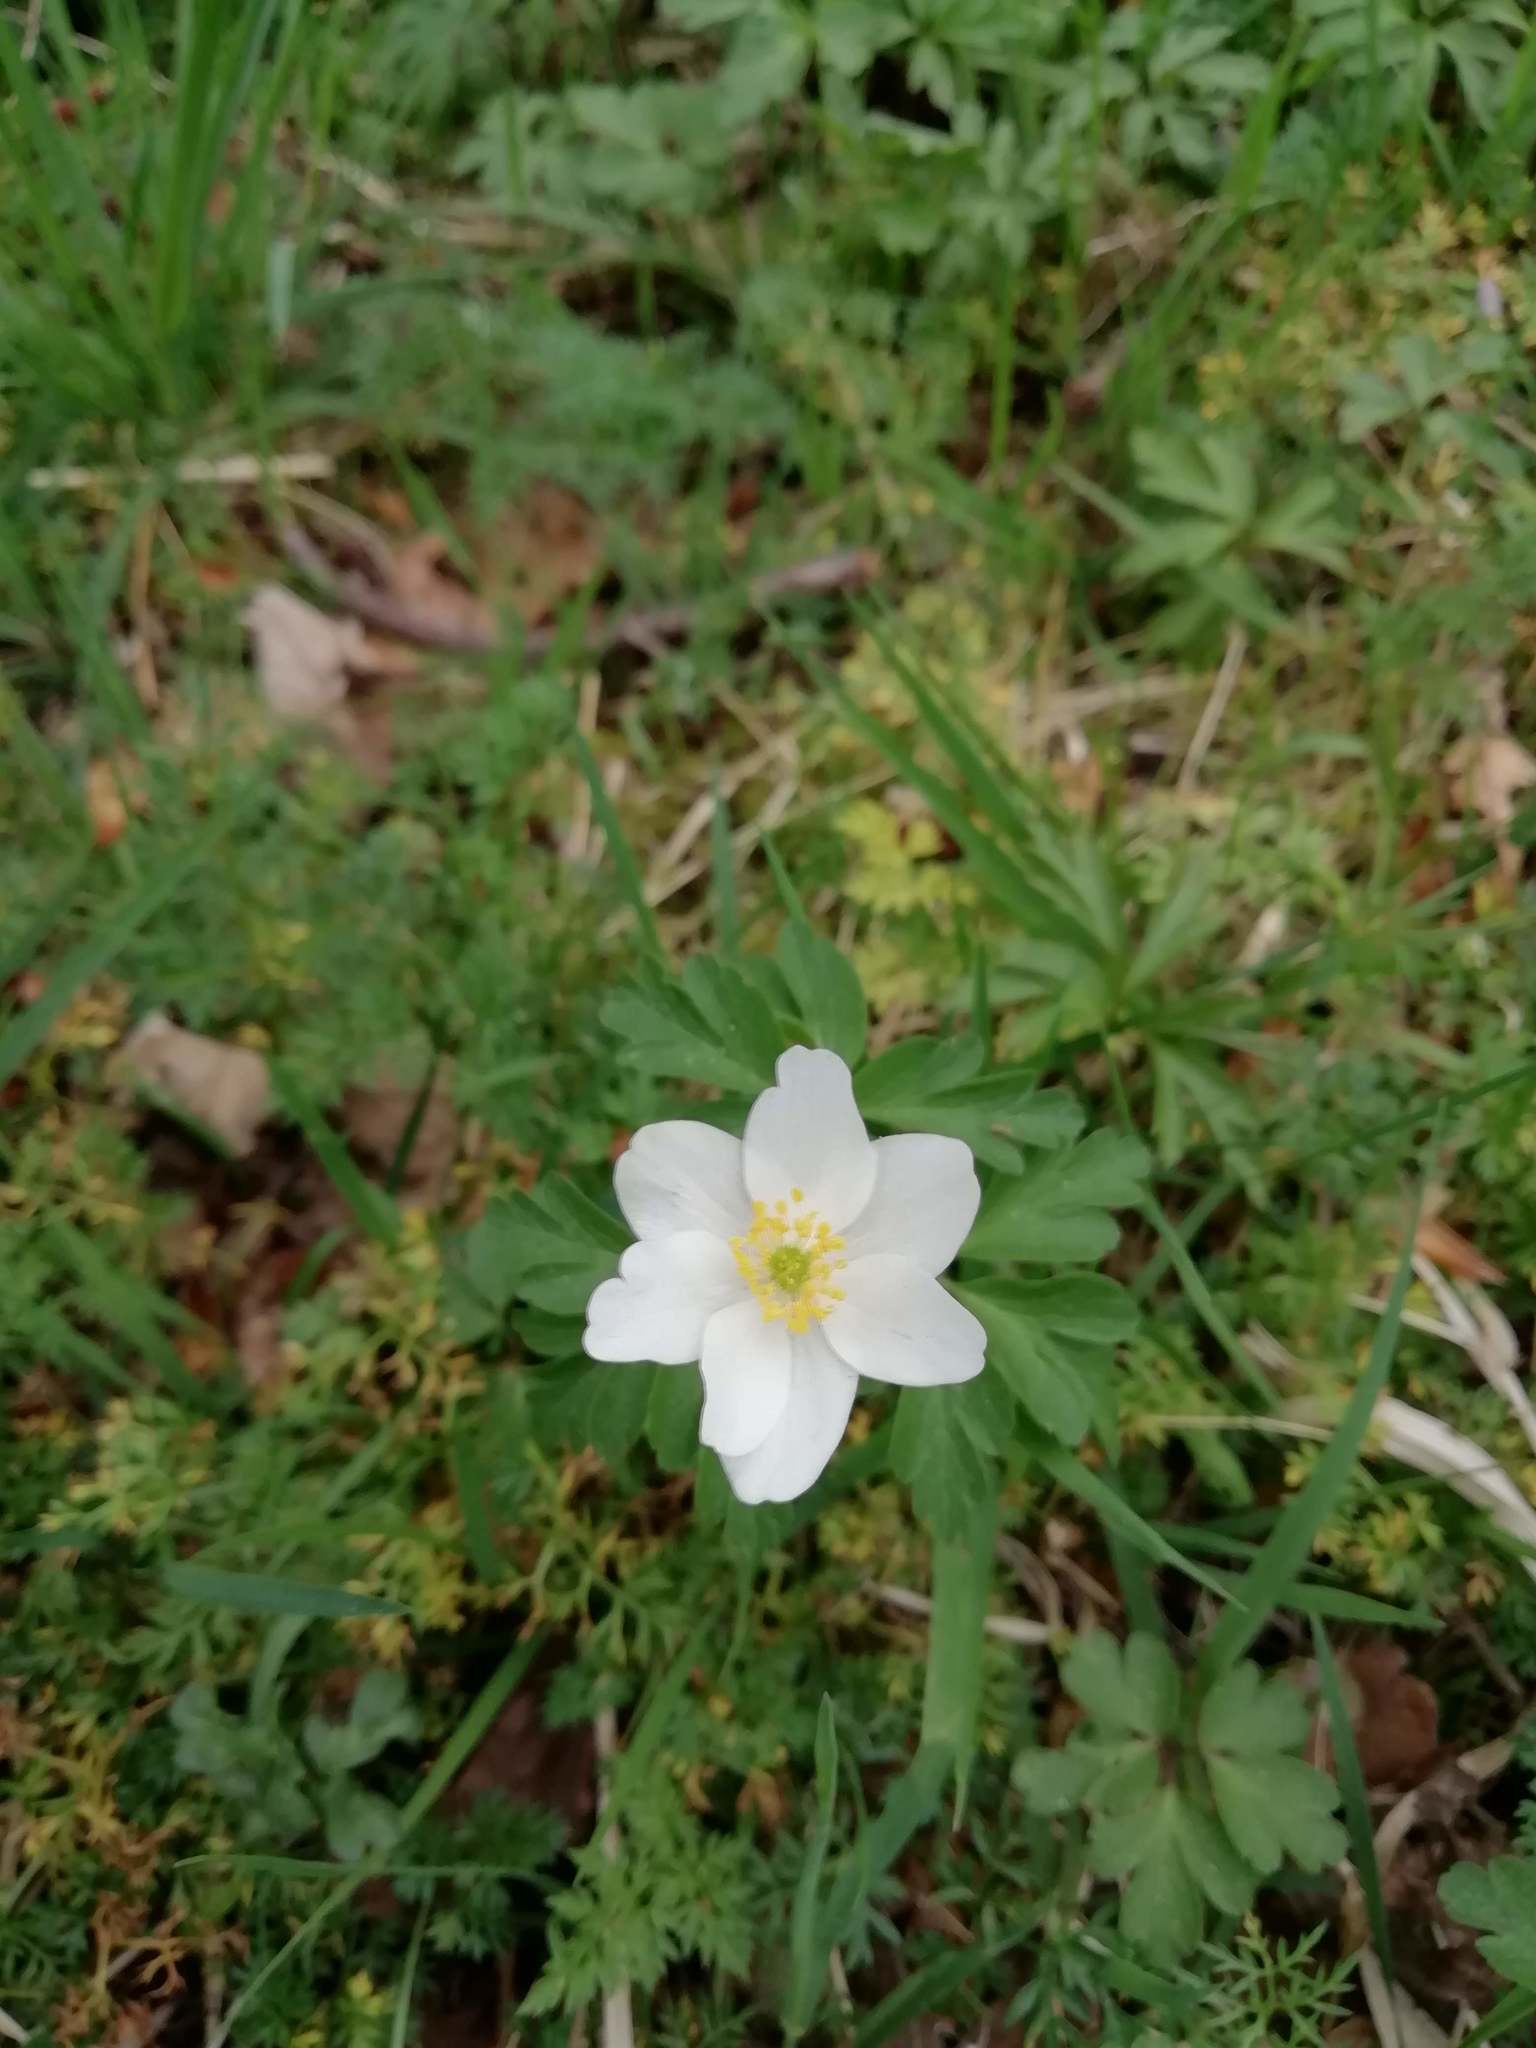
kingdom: Plantae
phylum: Tracheophyta
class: Magnoliopsida
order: Ranunculales
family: Ranunculaceae
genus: Anemone
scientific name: Anemone nemorosa
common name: Wood anemone
